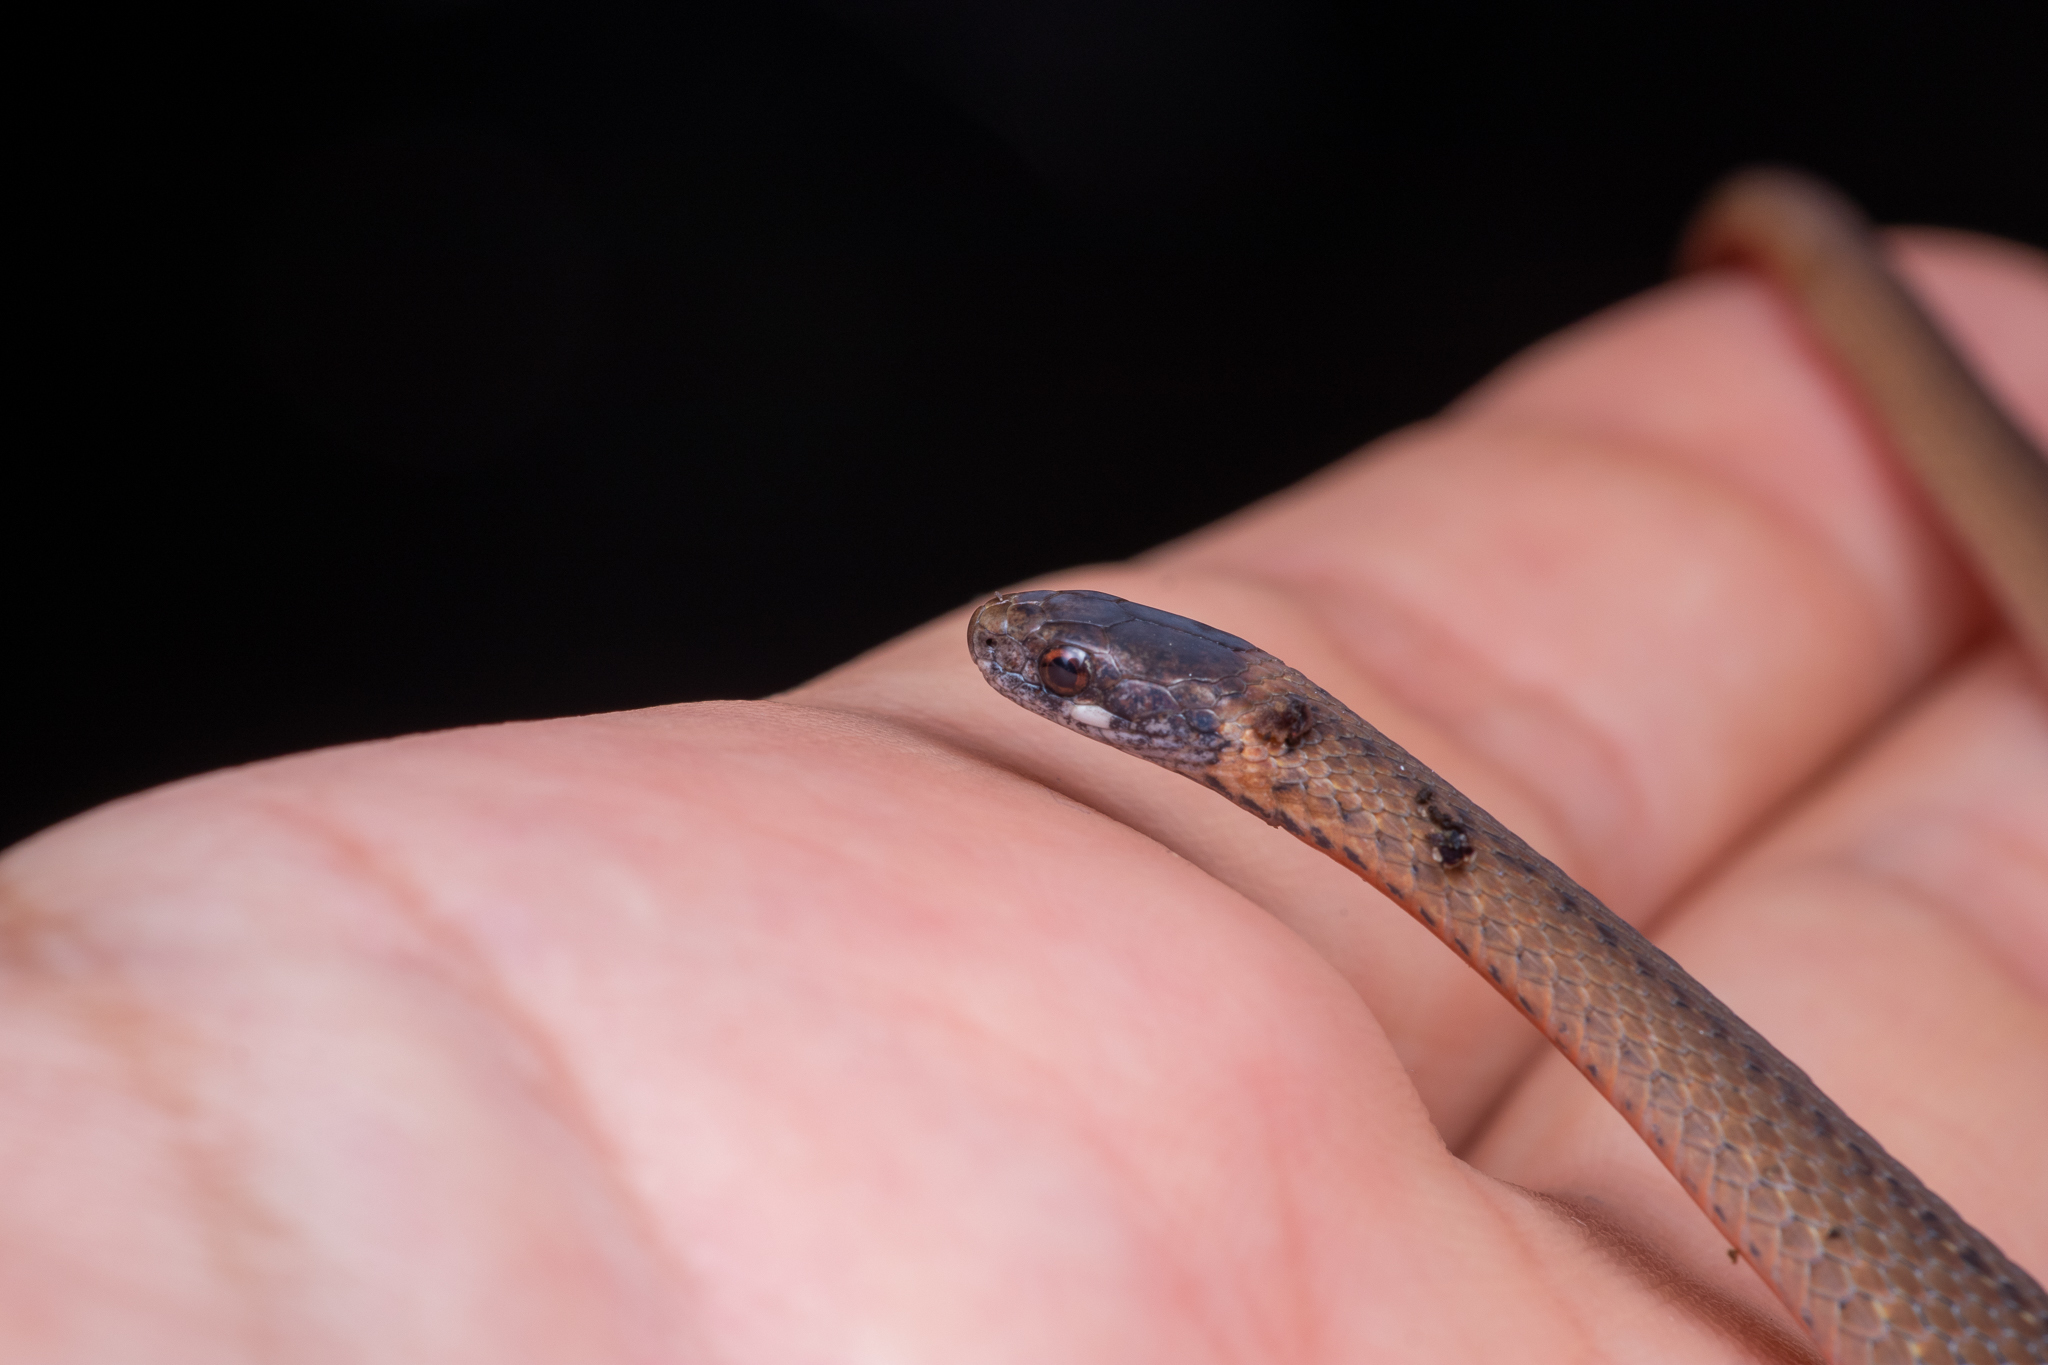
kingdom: Animalia
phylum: Chordata
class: Squamata
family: Colubridae
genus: Storeria
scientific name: Storeria occipitomaculata
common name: Redbelly snake
